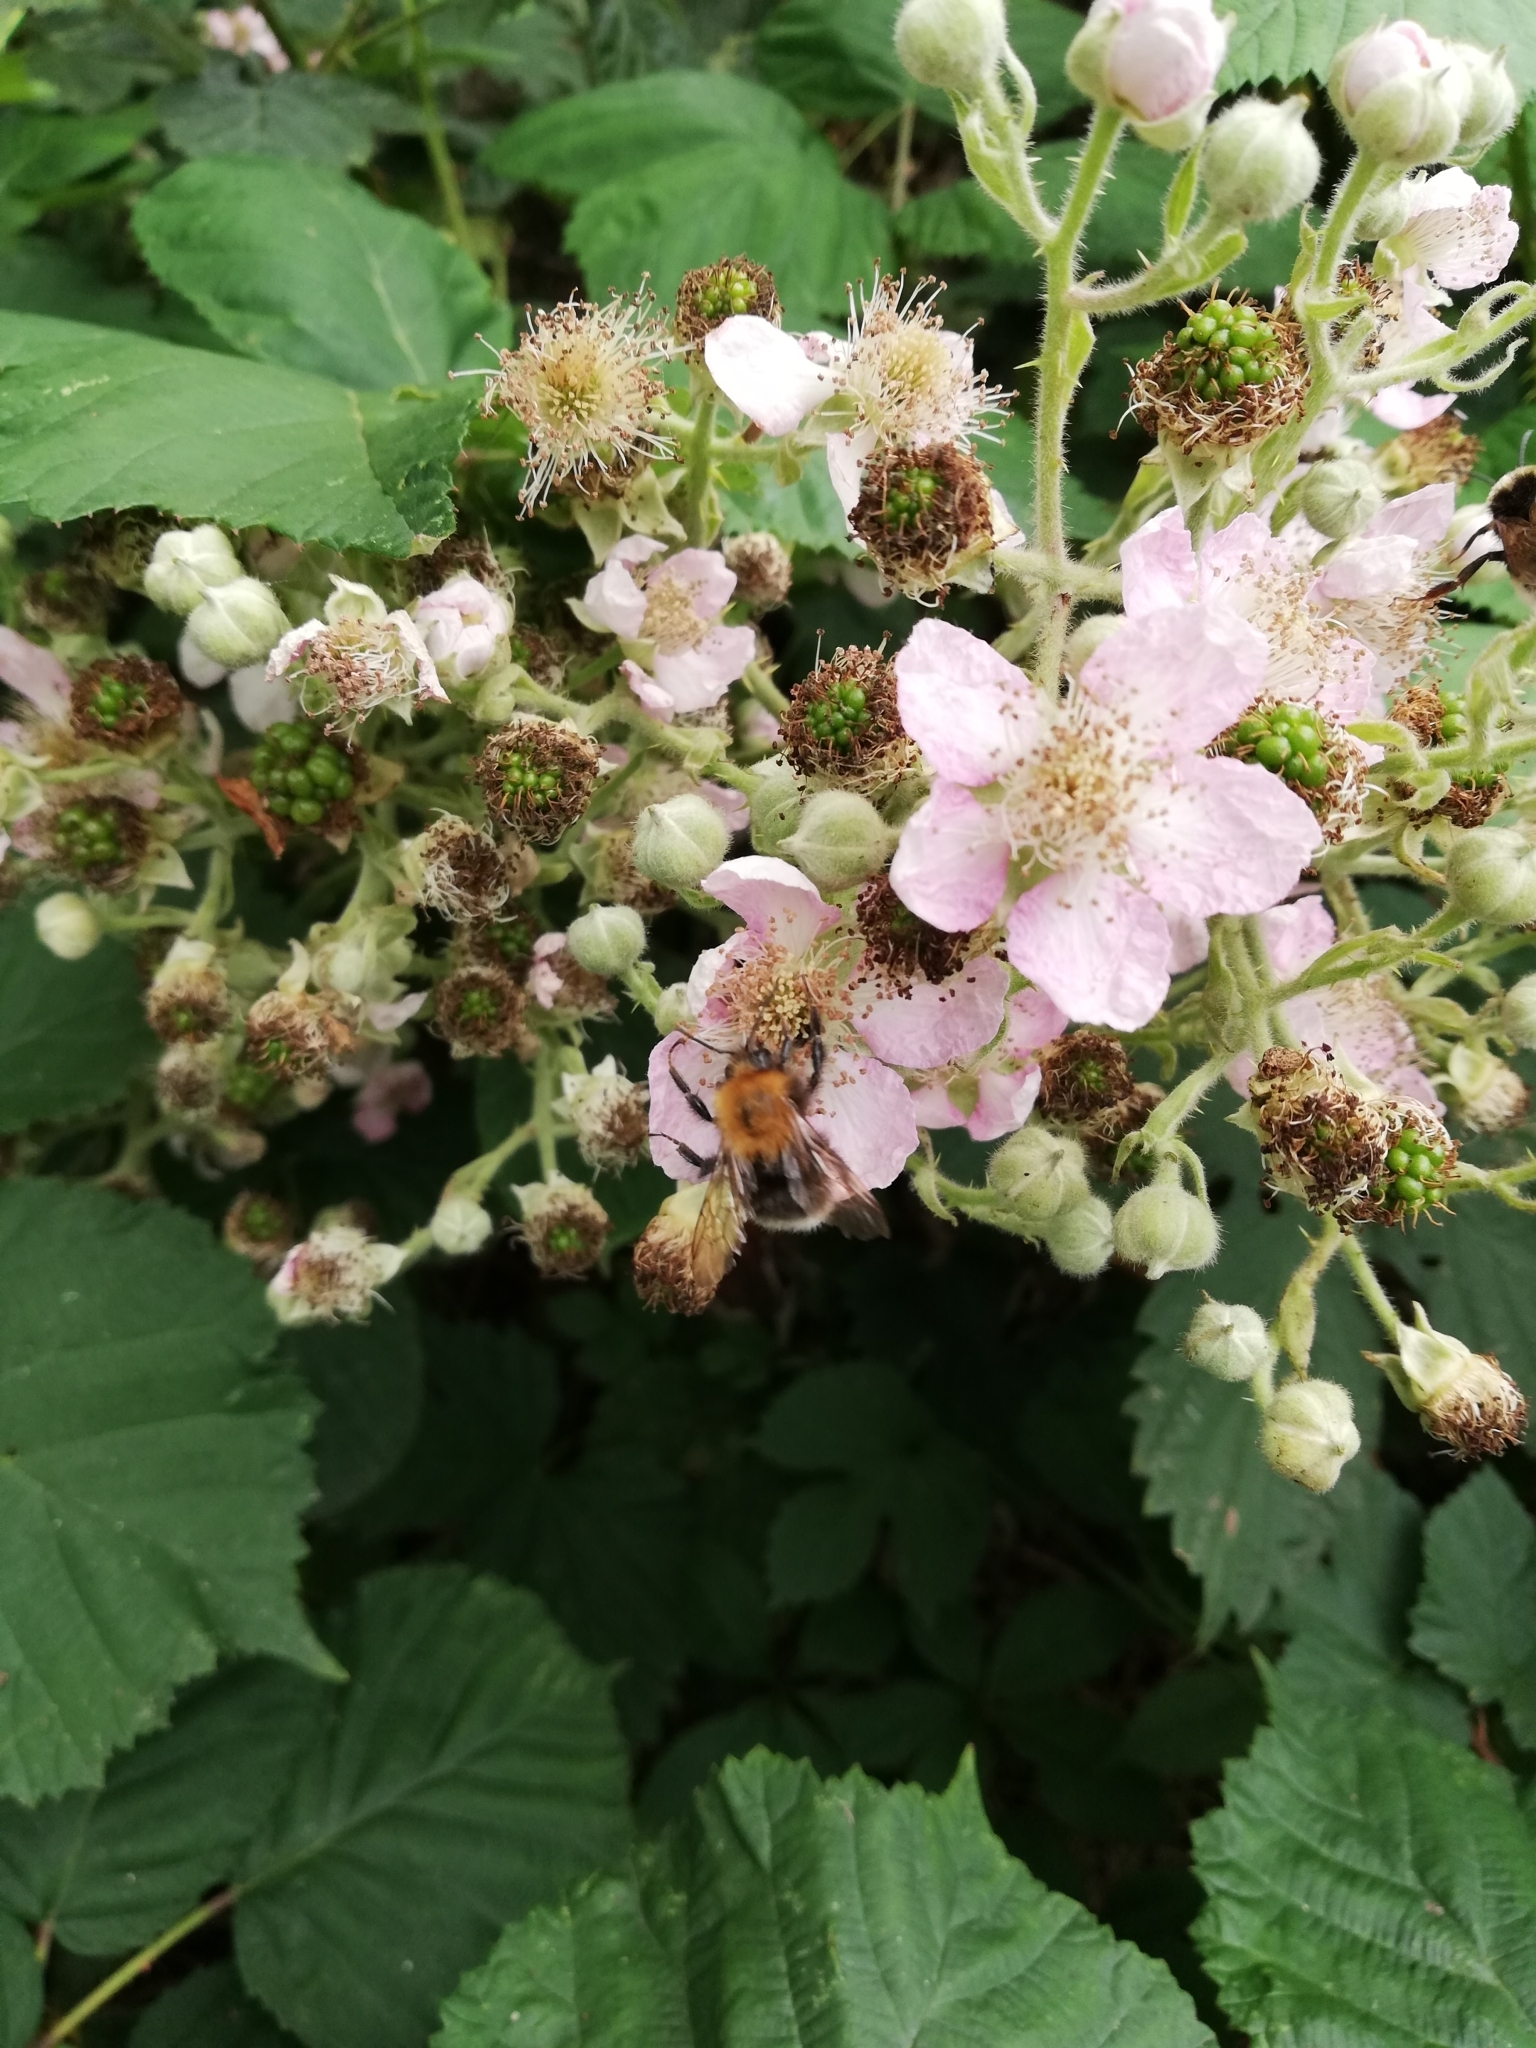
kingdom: Animalia
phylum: Arthropoda
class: Insecta
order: Hymenoptera
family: Apidae
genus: Bombus
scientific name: Bombus hypnorum
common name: New garden bumblebee
